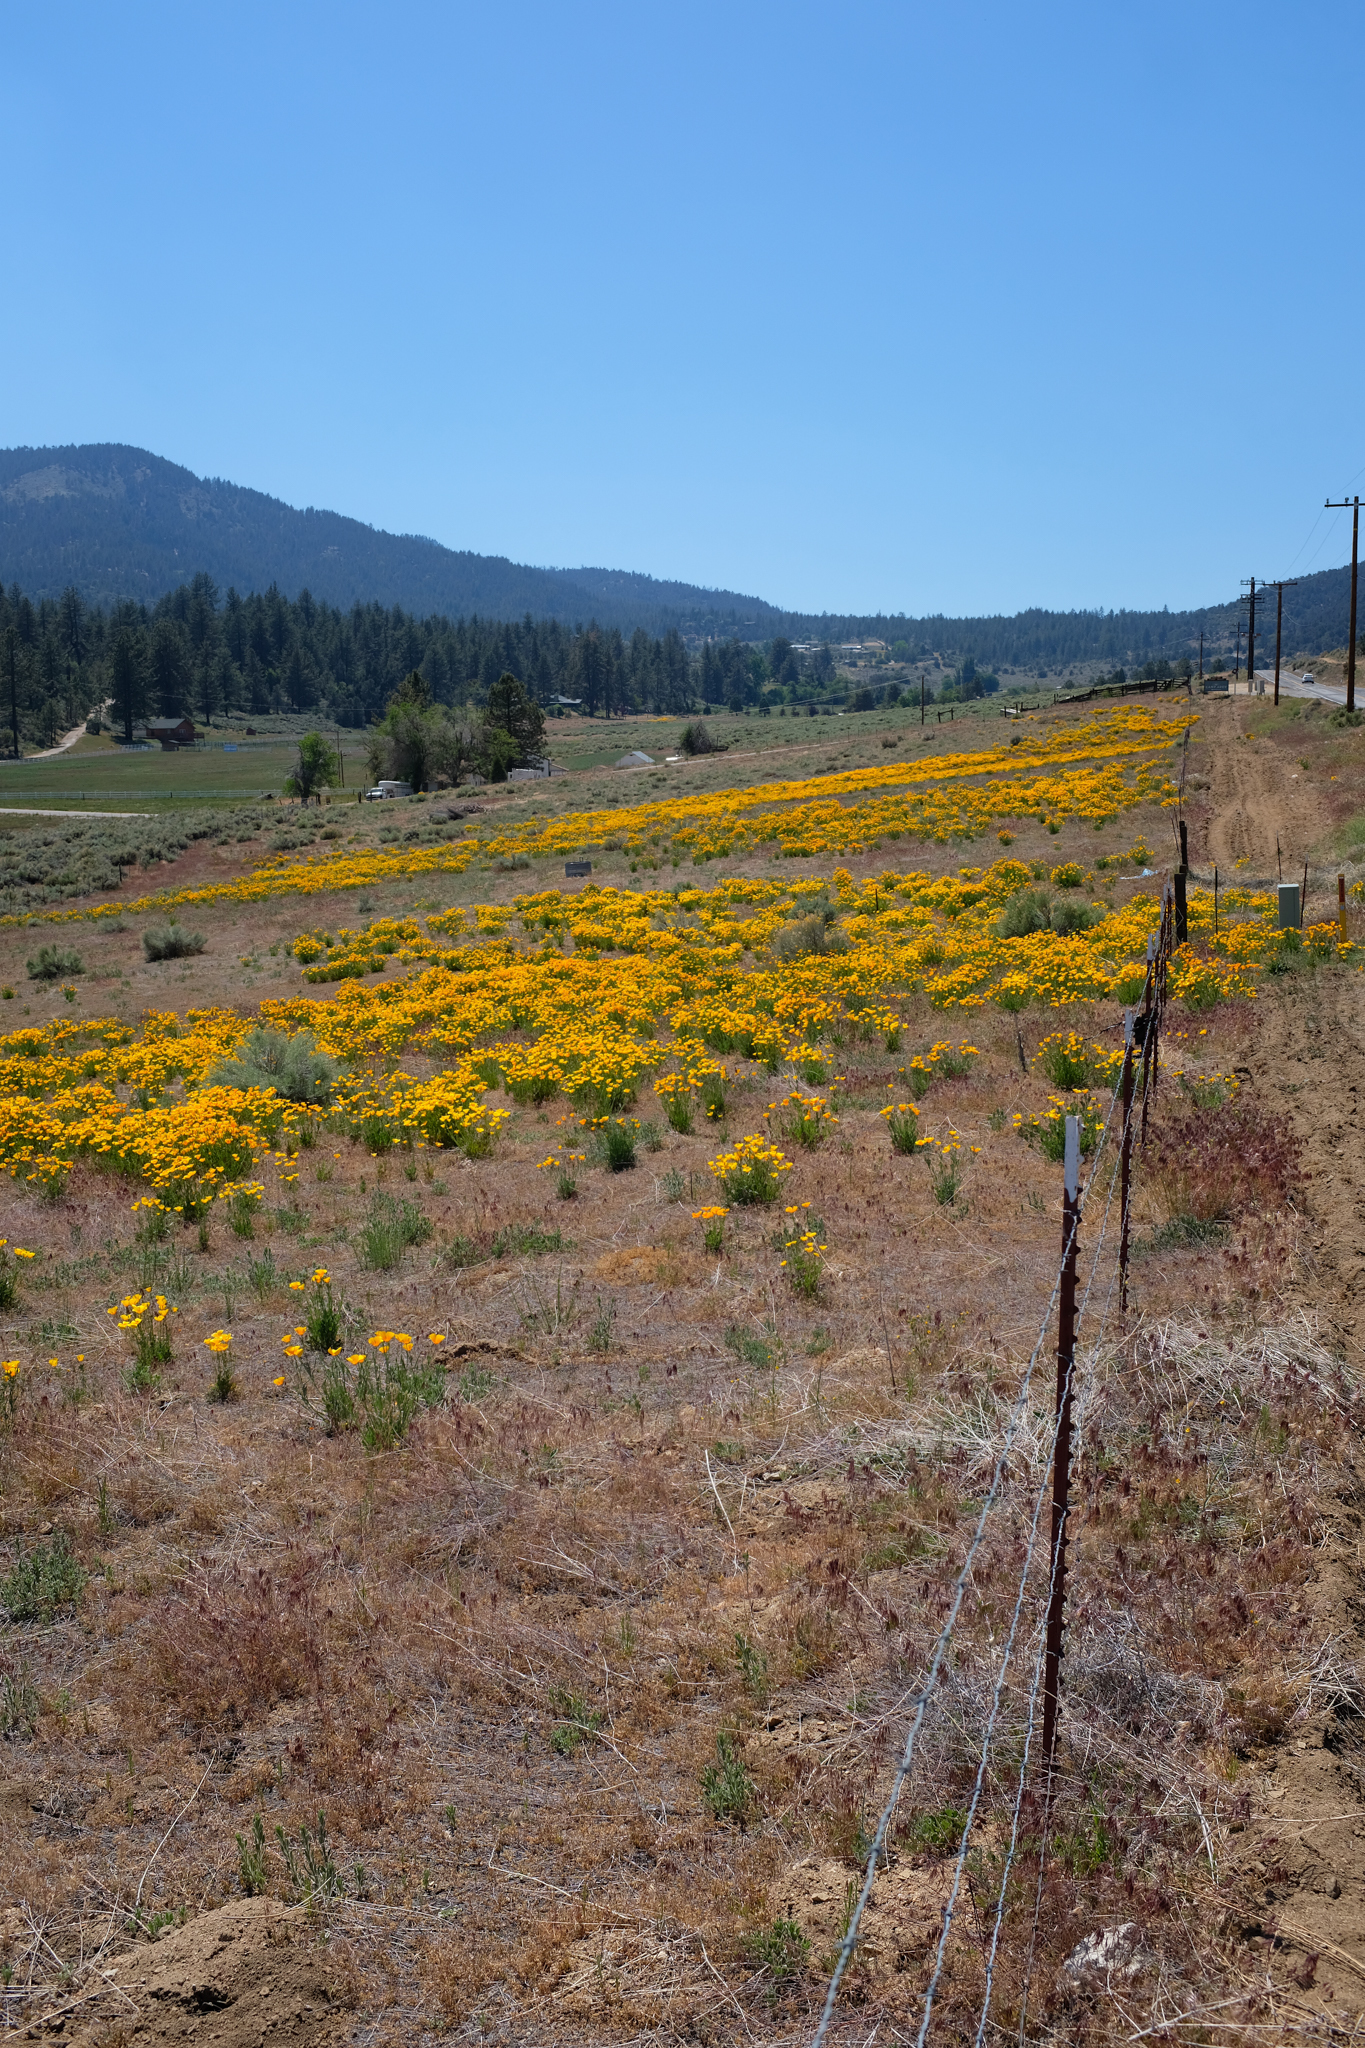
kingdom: Plantae
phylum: Tracheophyta
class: Magnoliopsida
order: Ranunculales
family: Papaveraceae
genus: Eschscholzia
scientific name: Eschscholzia californica
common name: California poppy
